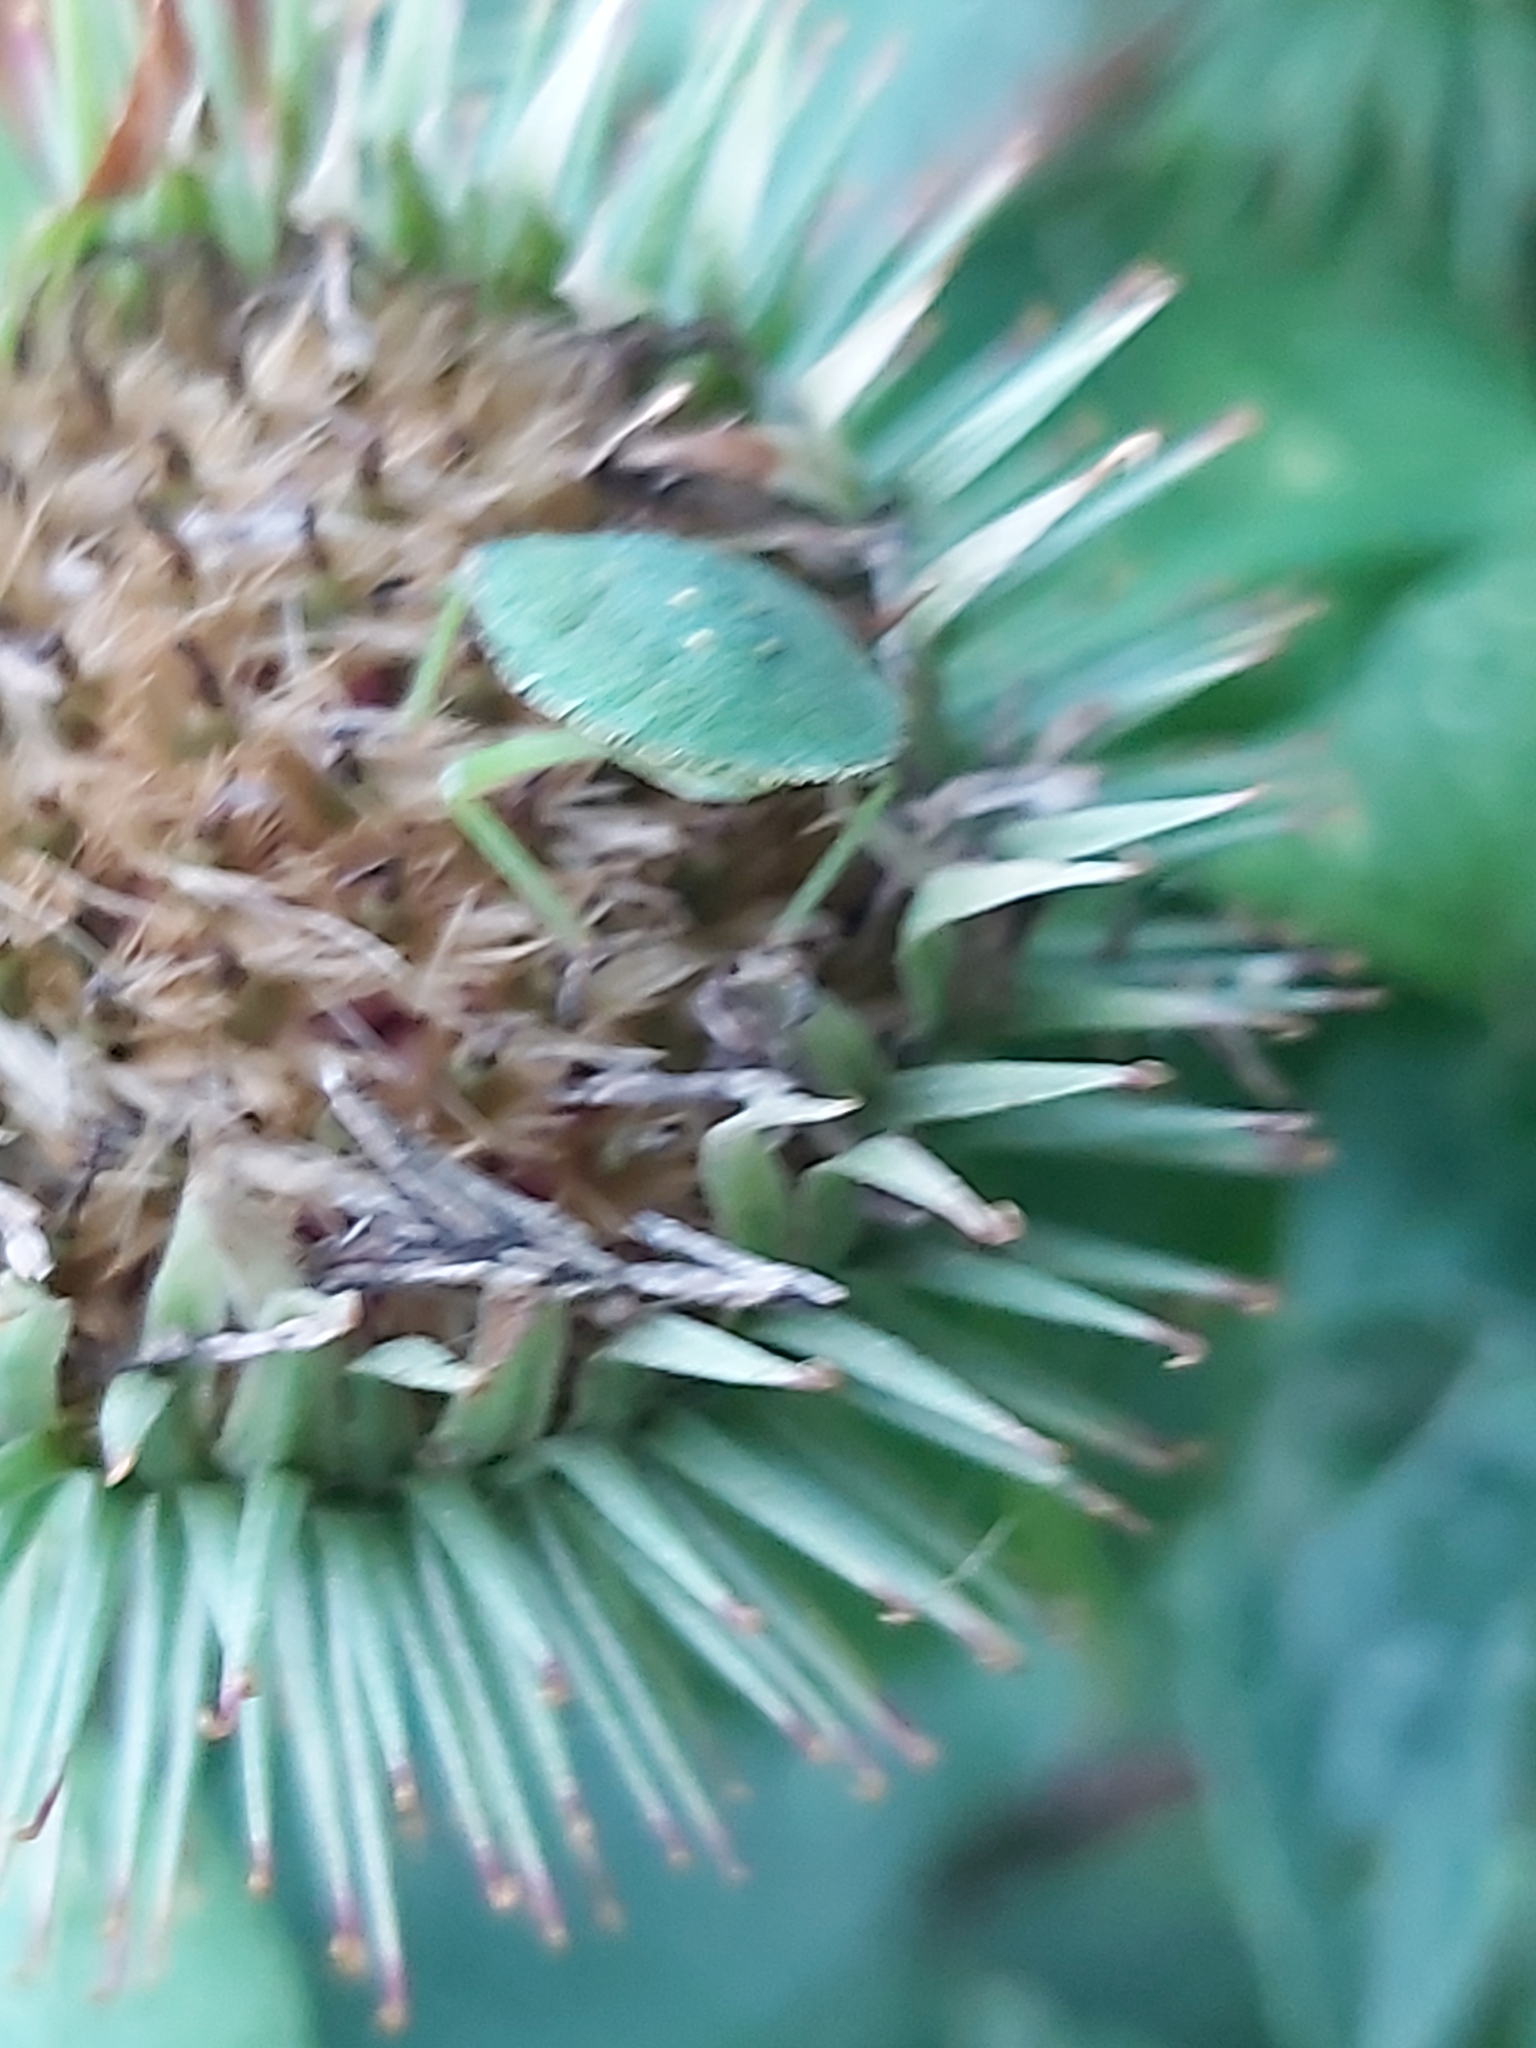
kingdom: Animalia
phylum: Arthropoda
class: Insecta
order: Hemiptera
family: Pentatomidae
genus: Palomena
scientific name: Palomena prasina
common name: Green shieldbug
